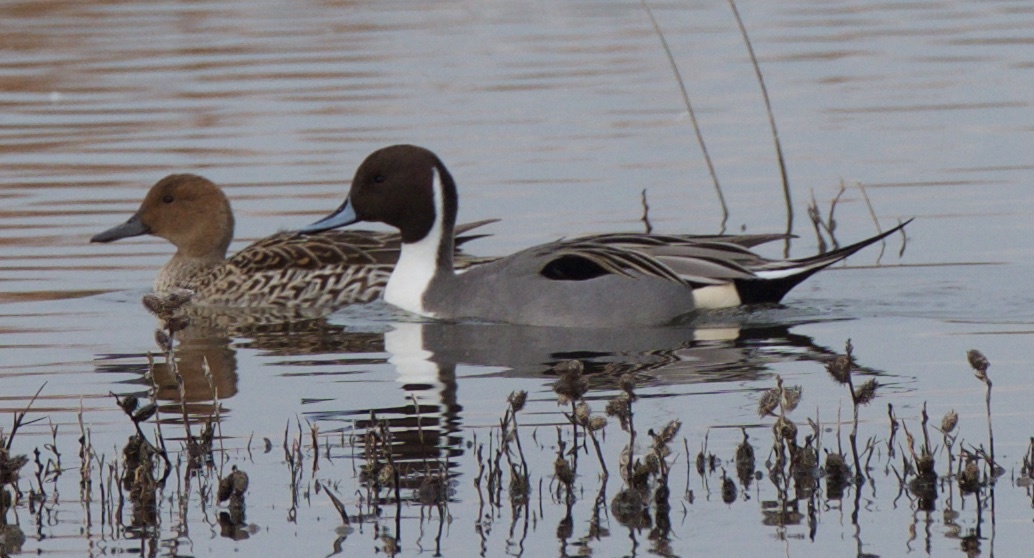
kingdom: Animalia
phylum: Chordata
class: Aves
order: Anseriformes
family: Anatidae
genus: Anas
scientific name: Anas acuta
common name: Northern pintail
